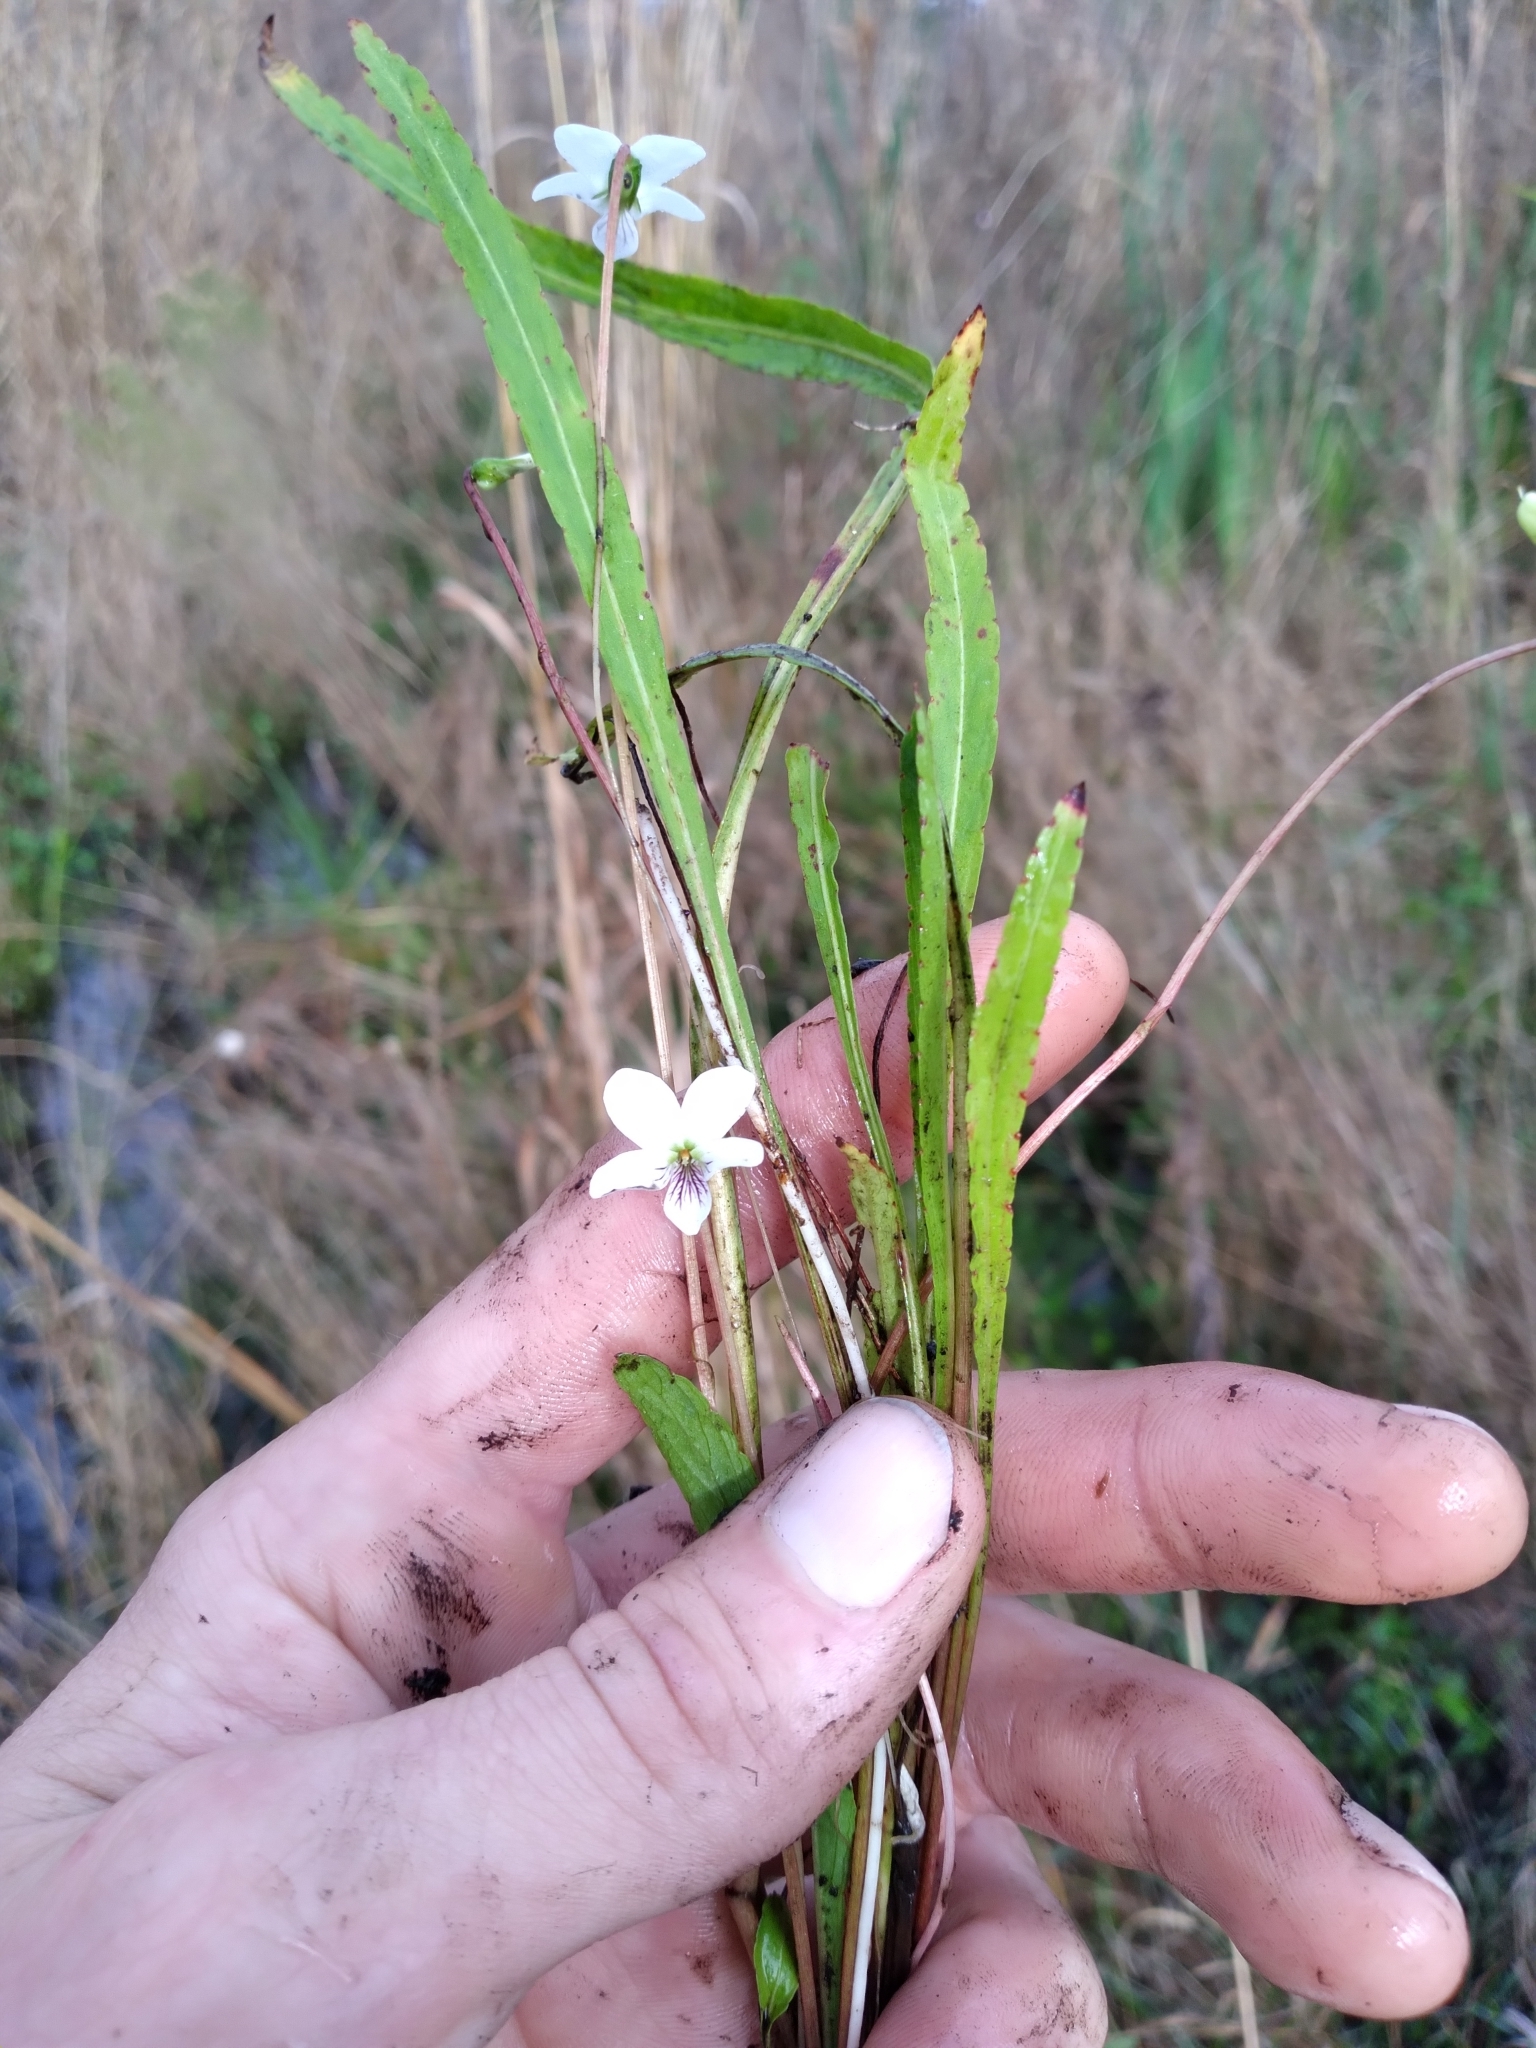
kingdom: Plantae
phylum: Tracheophyta
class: Magnoliopsida
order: Malpighiales
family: Violaceae
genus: Viola
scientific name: Viola vittata
